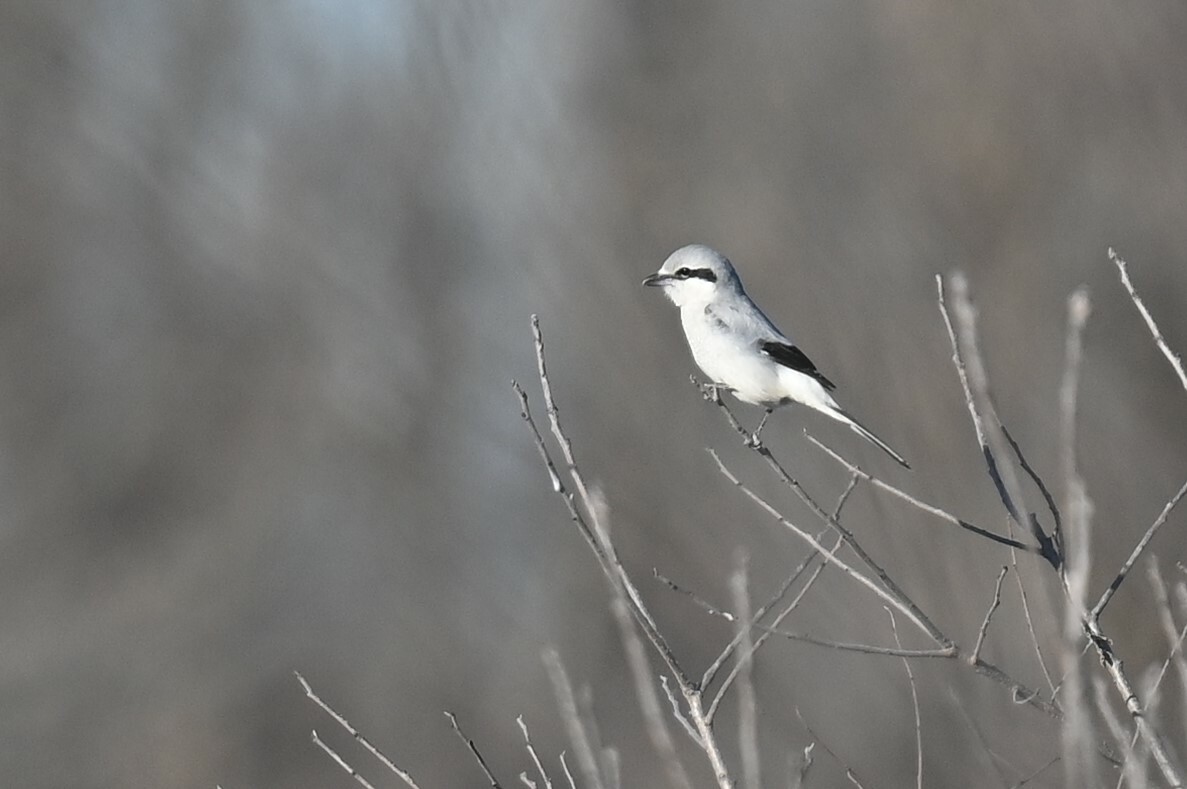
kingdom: Animalia
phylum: Chordata
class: Aves
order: Passeriformes
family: Laniidae
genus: Lanius
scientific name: Lanius borealis
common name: Northern shrike
